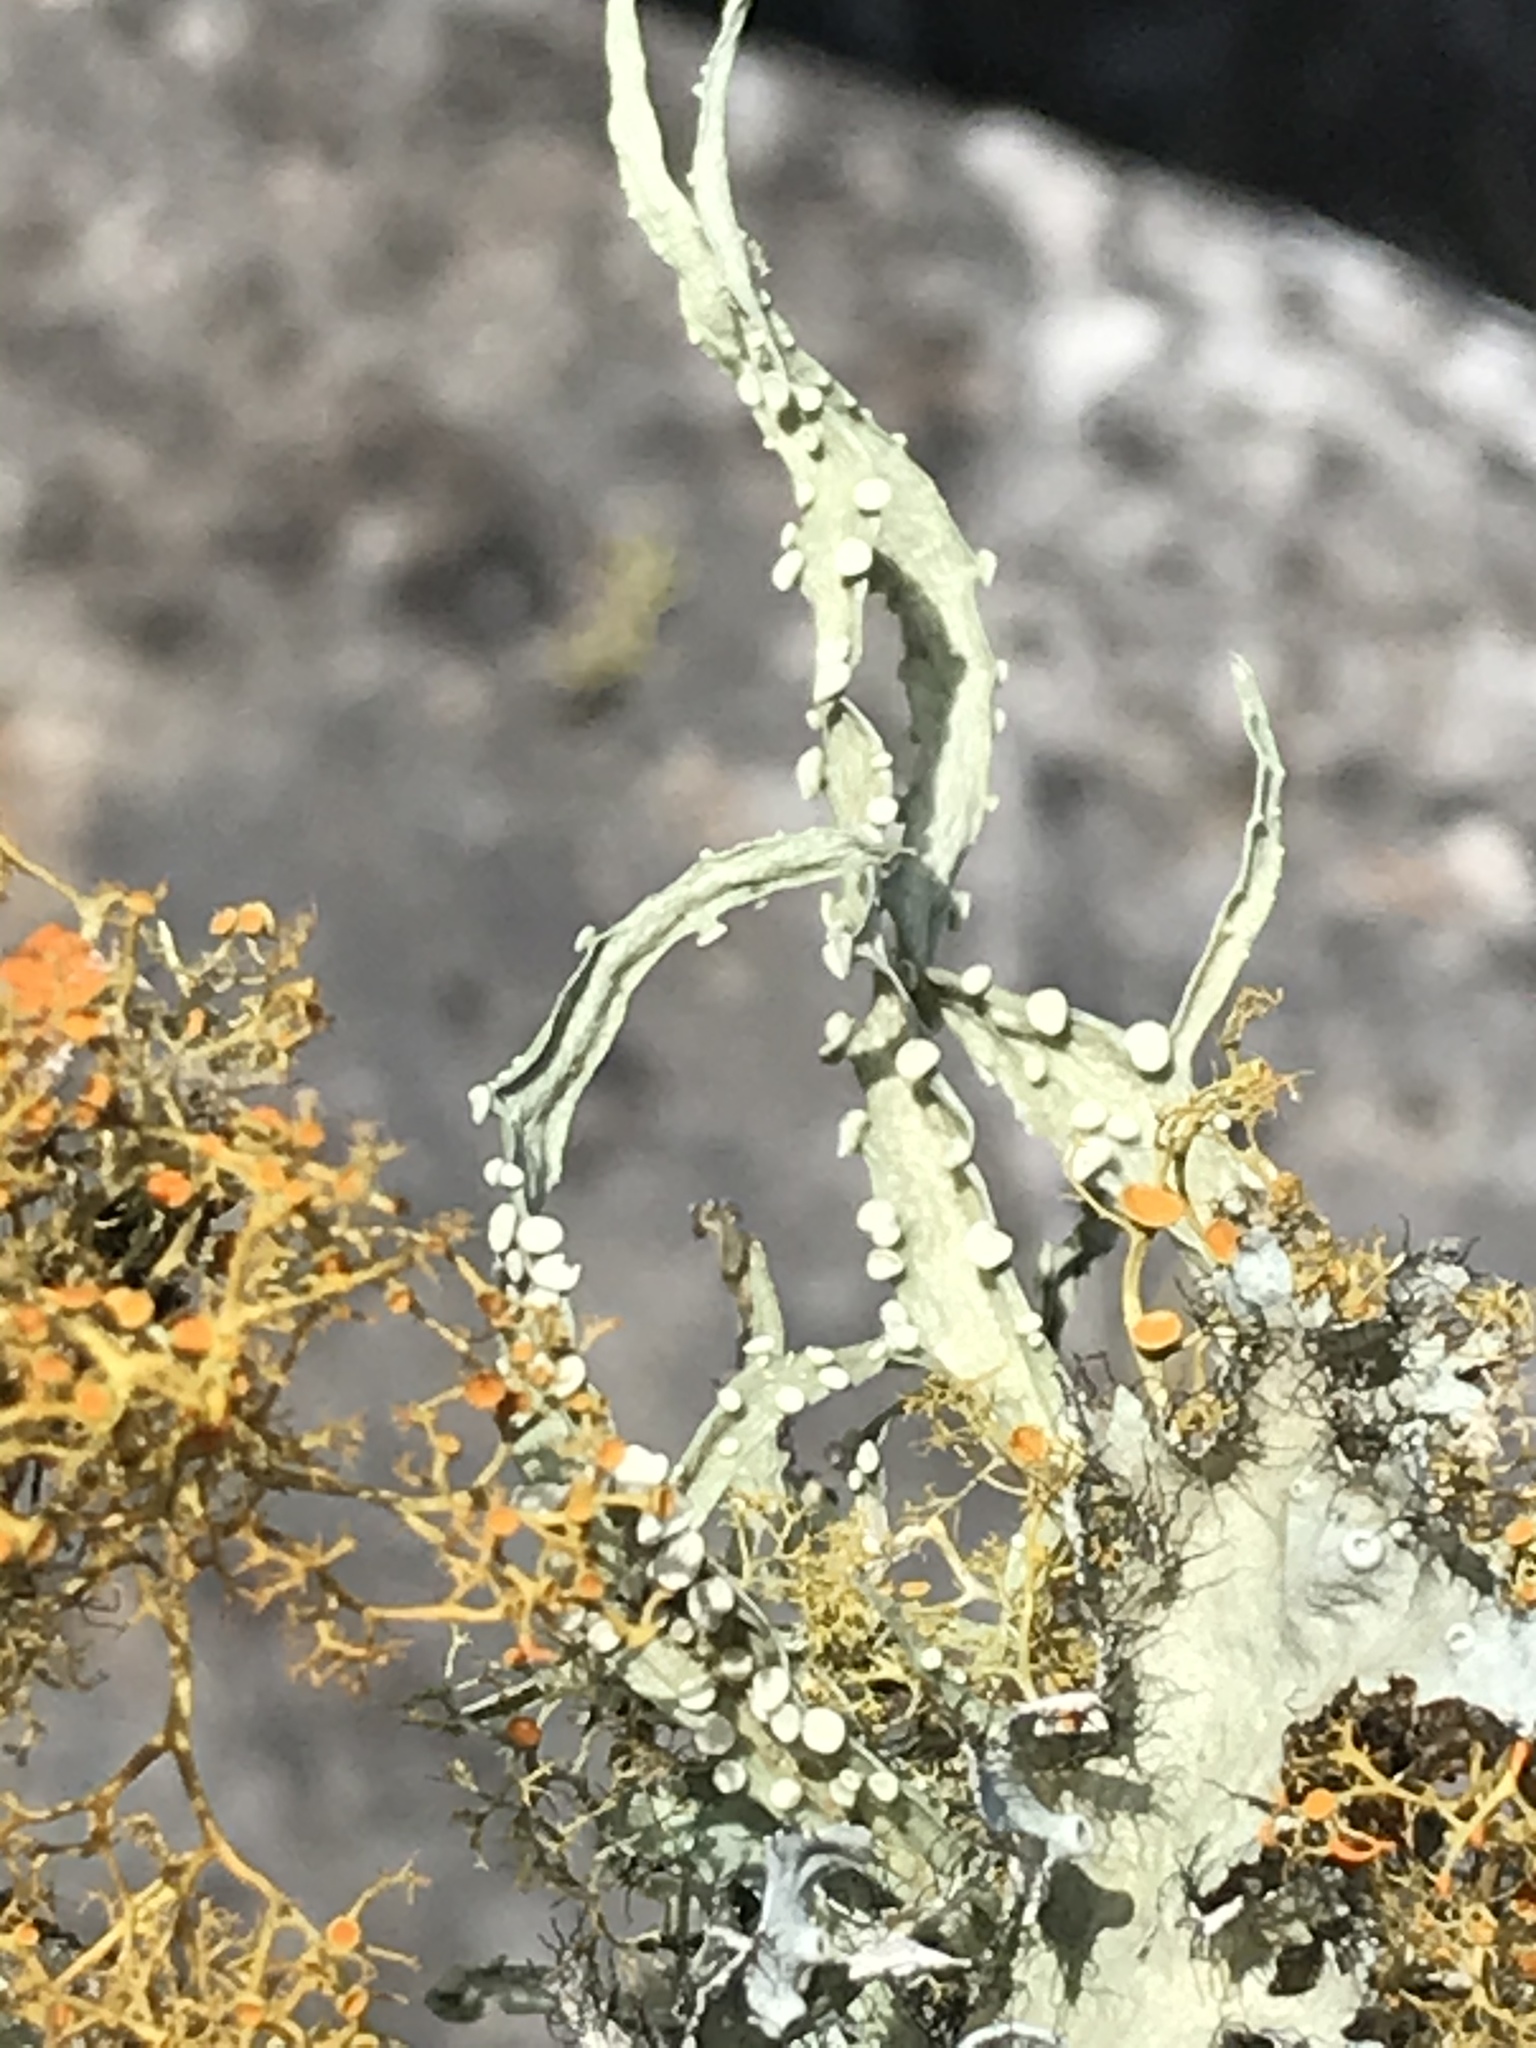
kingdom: Fungi
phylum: Ascomycota
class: Lecanoromycetes
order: Lecanorales
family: Ramalinaceae
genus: Ramalina
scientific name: Ramalina celastri
